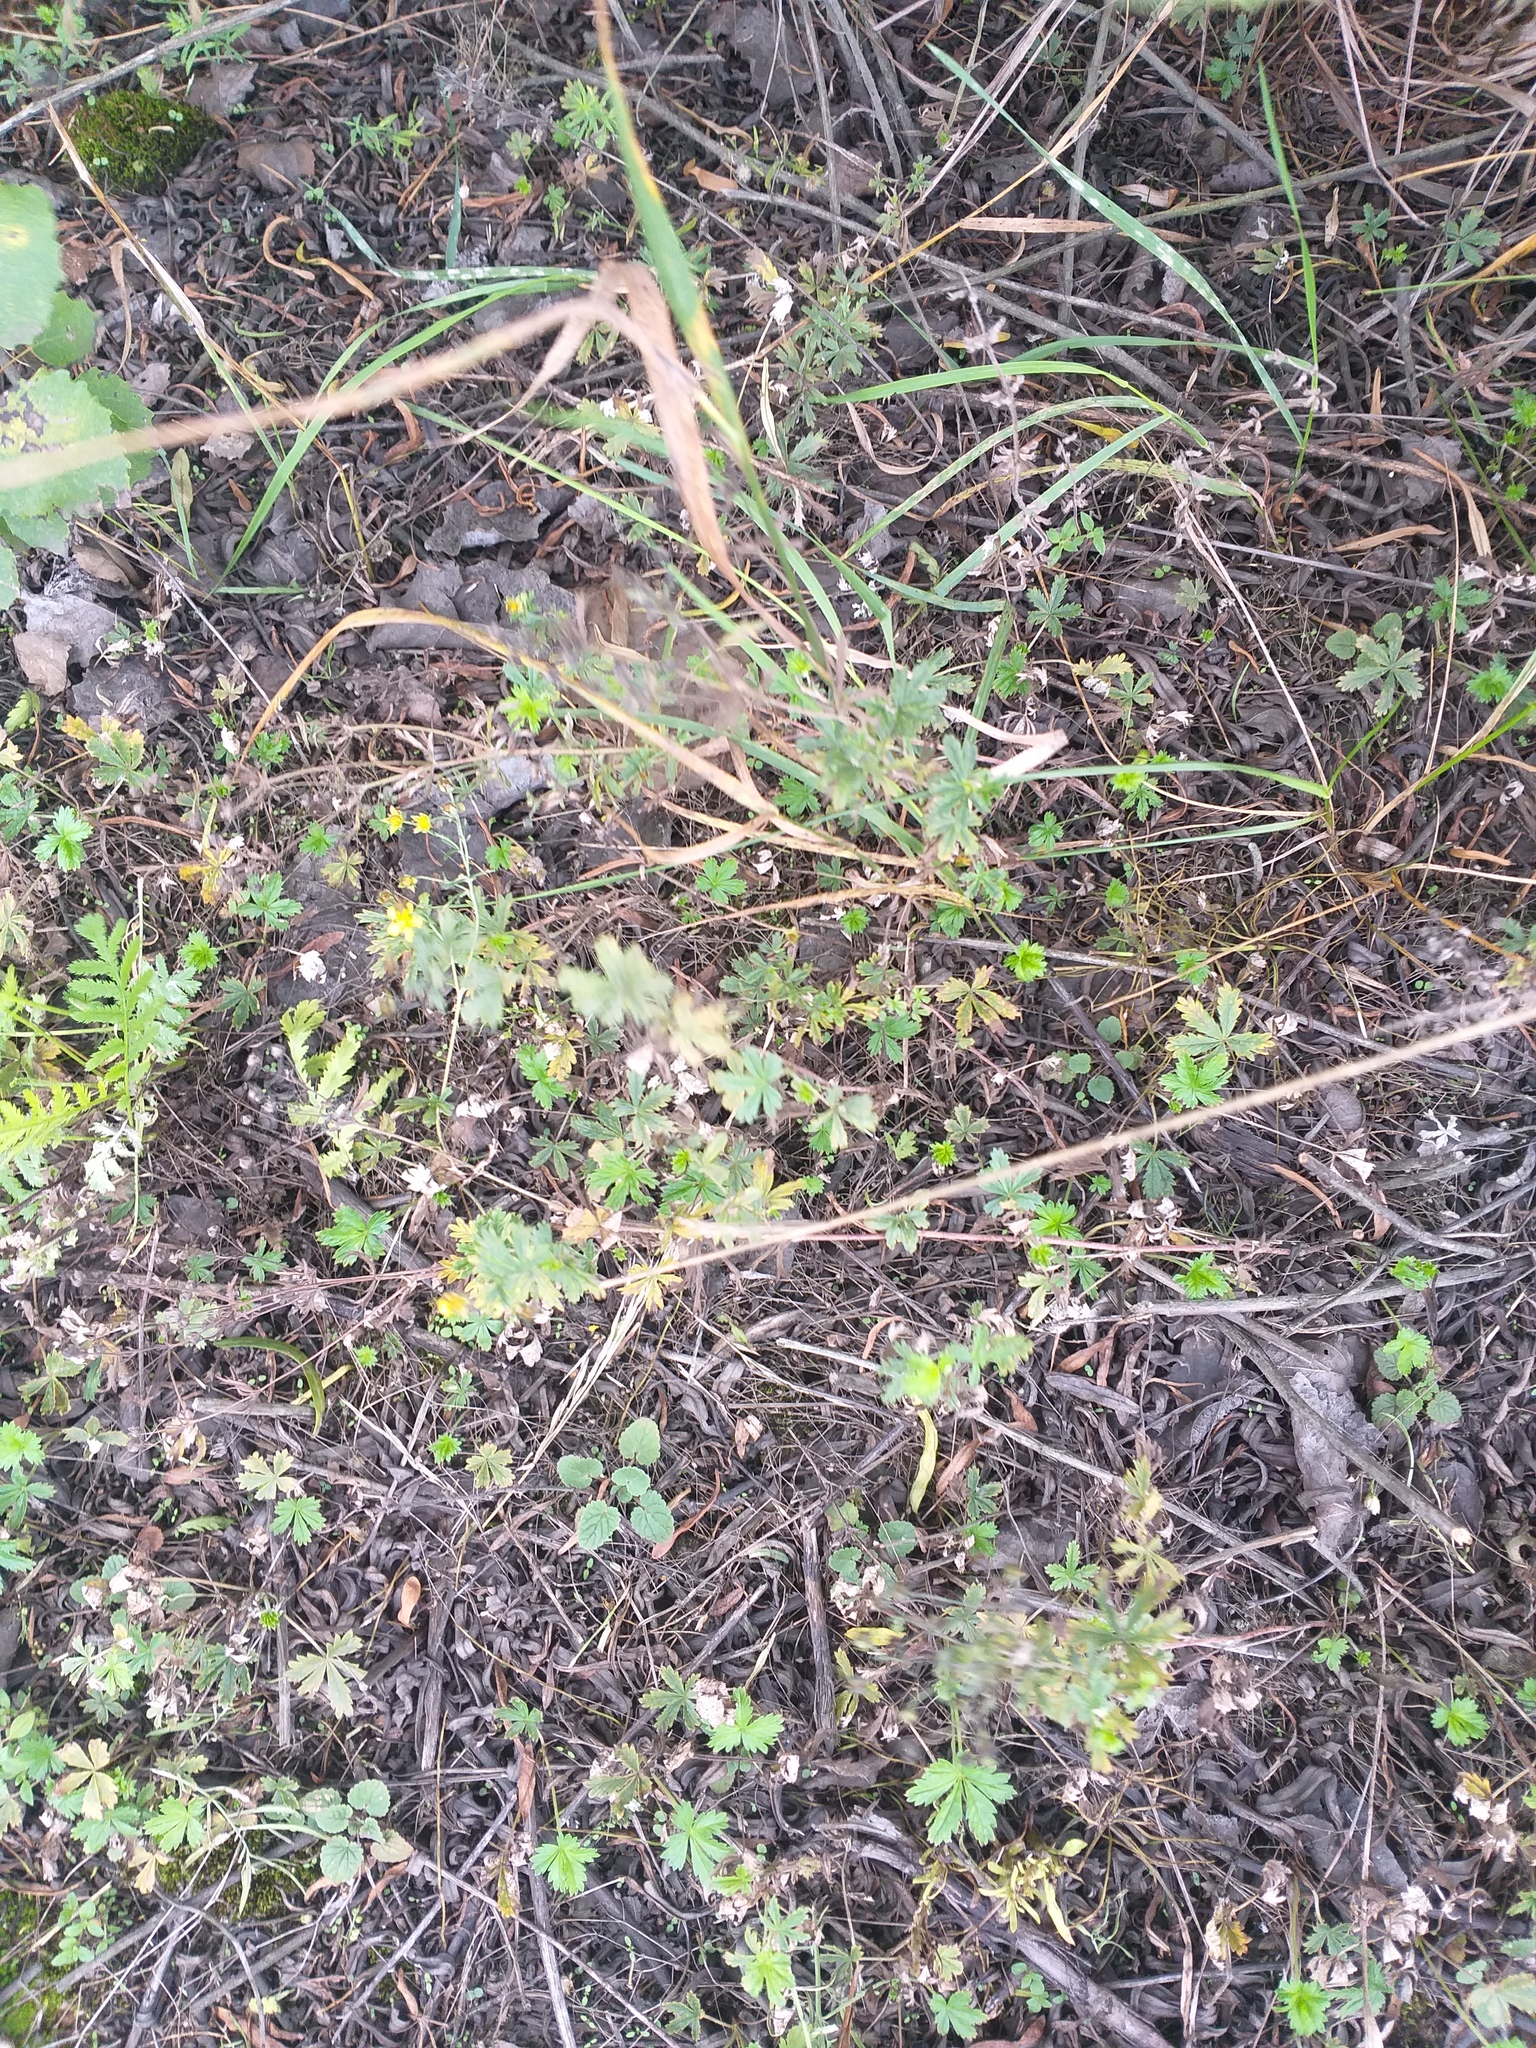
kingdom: Plantae
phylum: Tracheophyta
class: Magnoliopsida
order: Rosales
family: Rosaceae
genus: Potentilla
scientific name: Potentilla argentea
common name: Hoary cinquefoil
